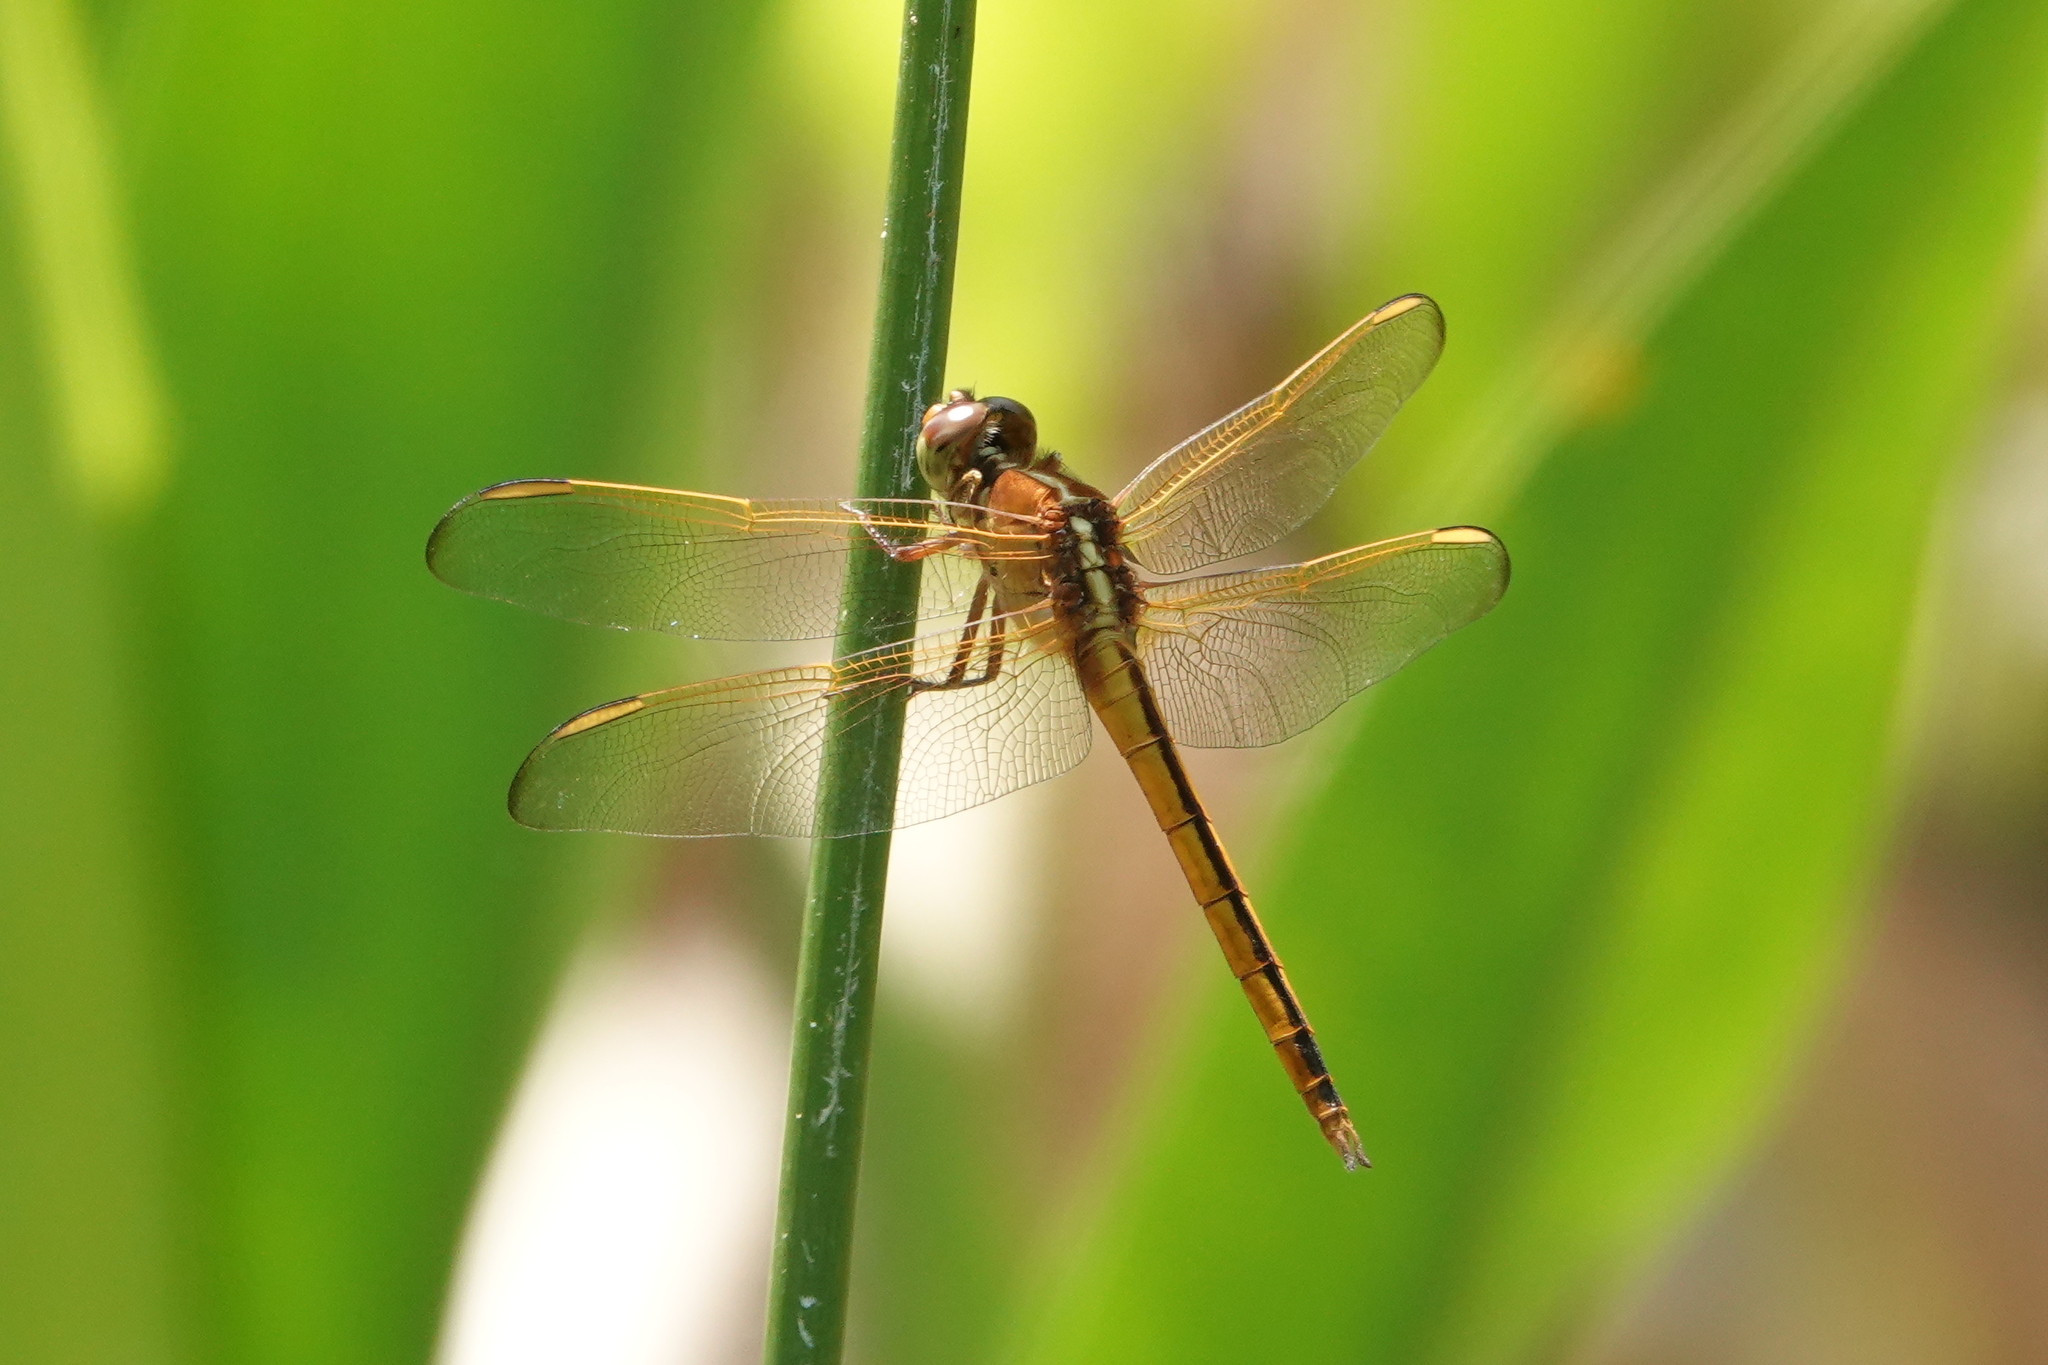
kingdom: Animalia
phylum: Arthropoda
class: Insecta
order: Odonata
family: Libellulidae
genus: Libellula
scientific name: Libellula needhami
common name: Needham's skimmer
